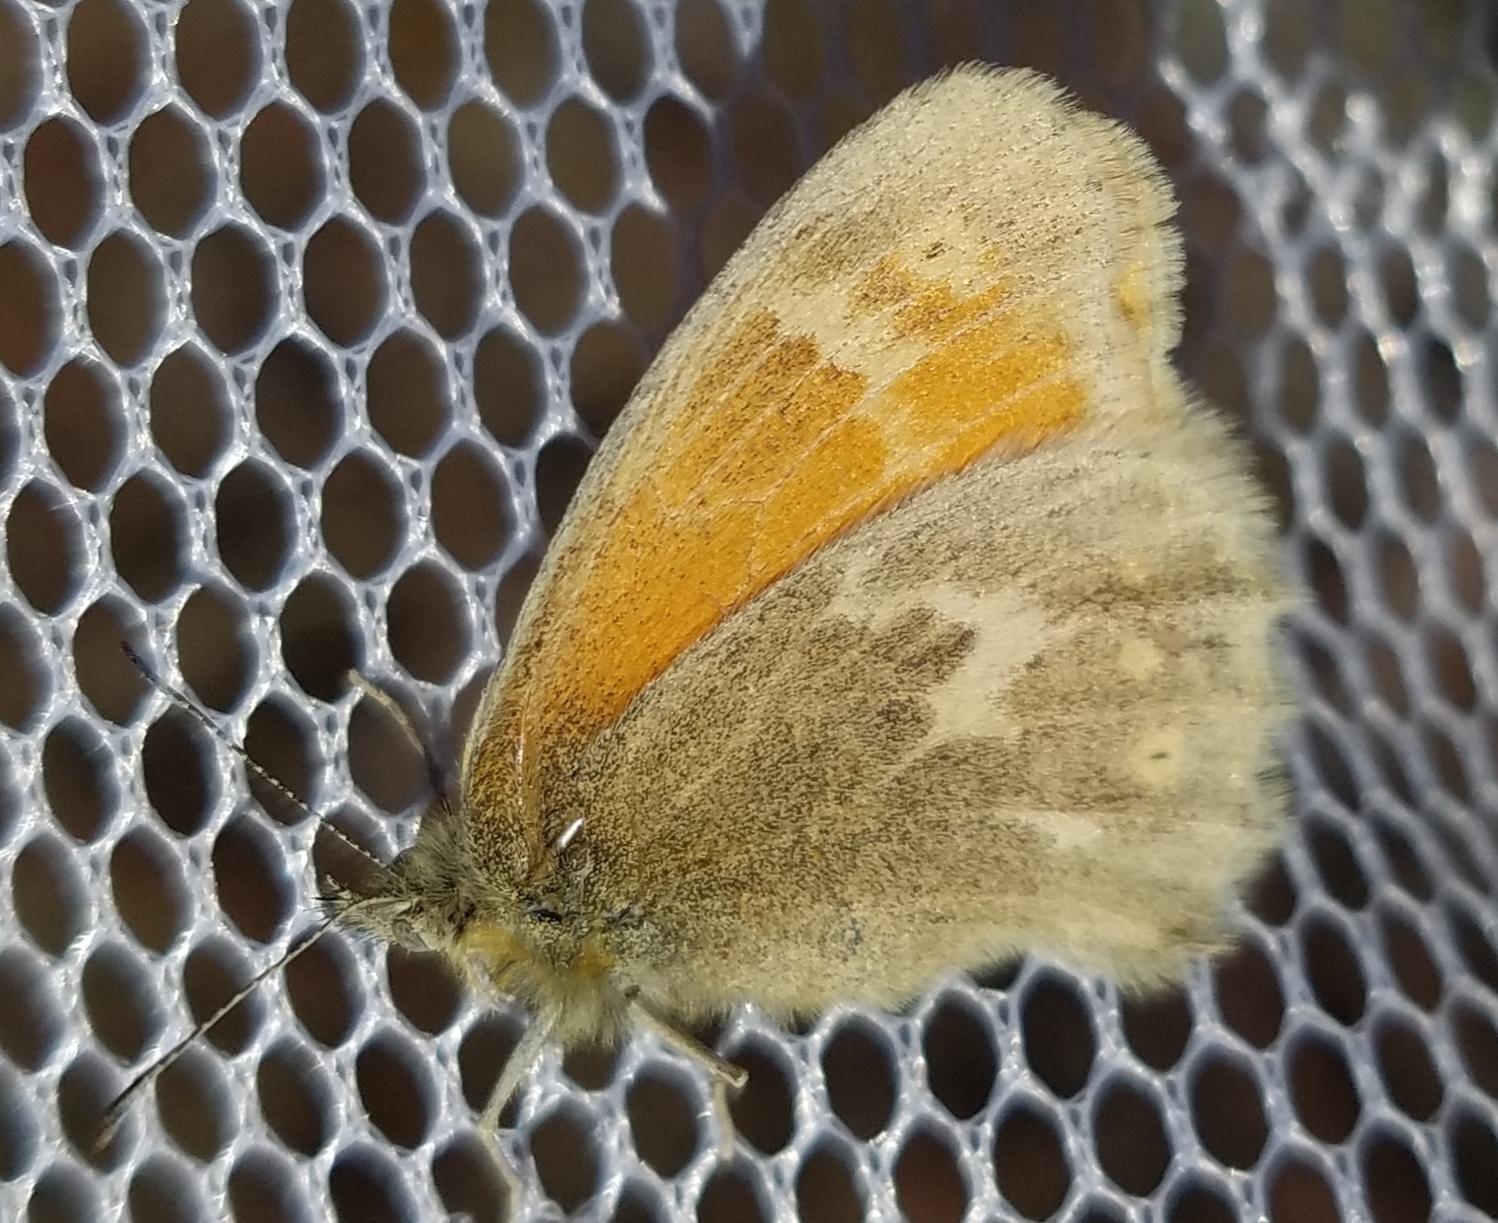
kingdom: Animalia
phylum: Arthropoda
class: Insecta
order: Lepidoptera
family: Nymphalidae
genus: Coenonympha
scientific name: Coenonympha california
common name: Common ringlet
